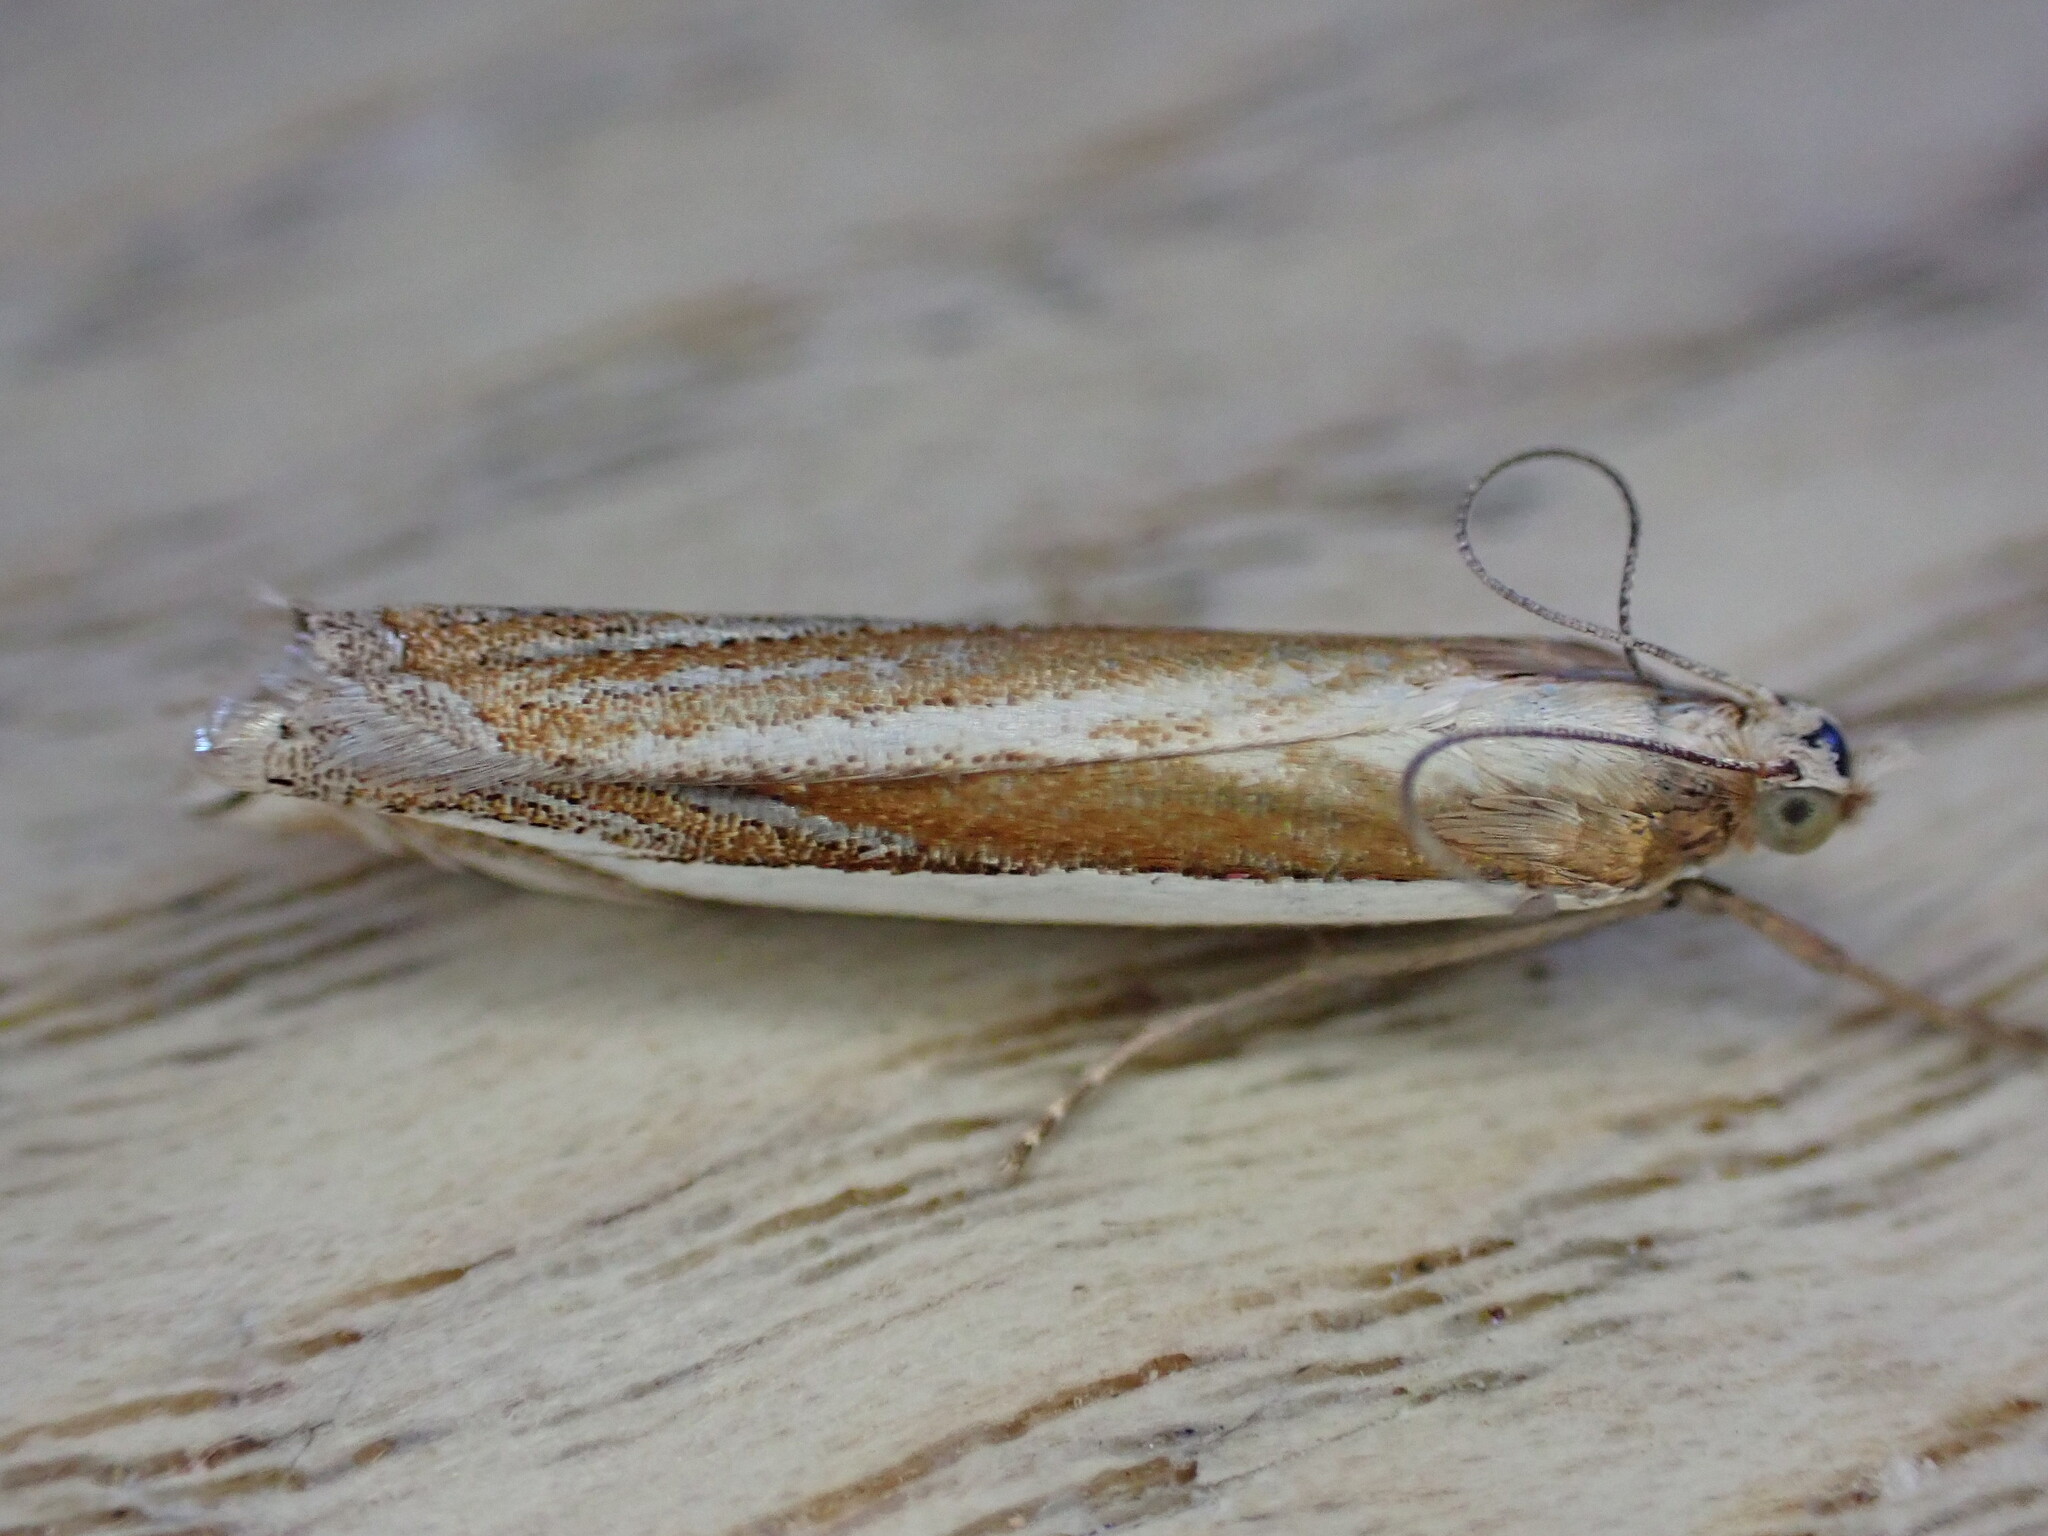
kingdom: Animalia
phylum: Arthropoda
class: Insecta
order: Lepidoptera
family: Crambidae
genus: Crambus
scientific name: Crambus pascuella
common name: Inlaid grass-veneer
